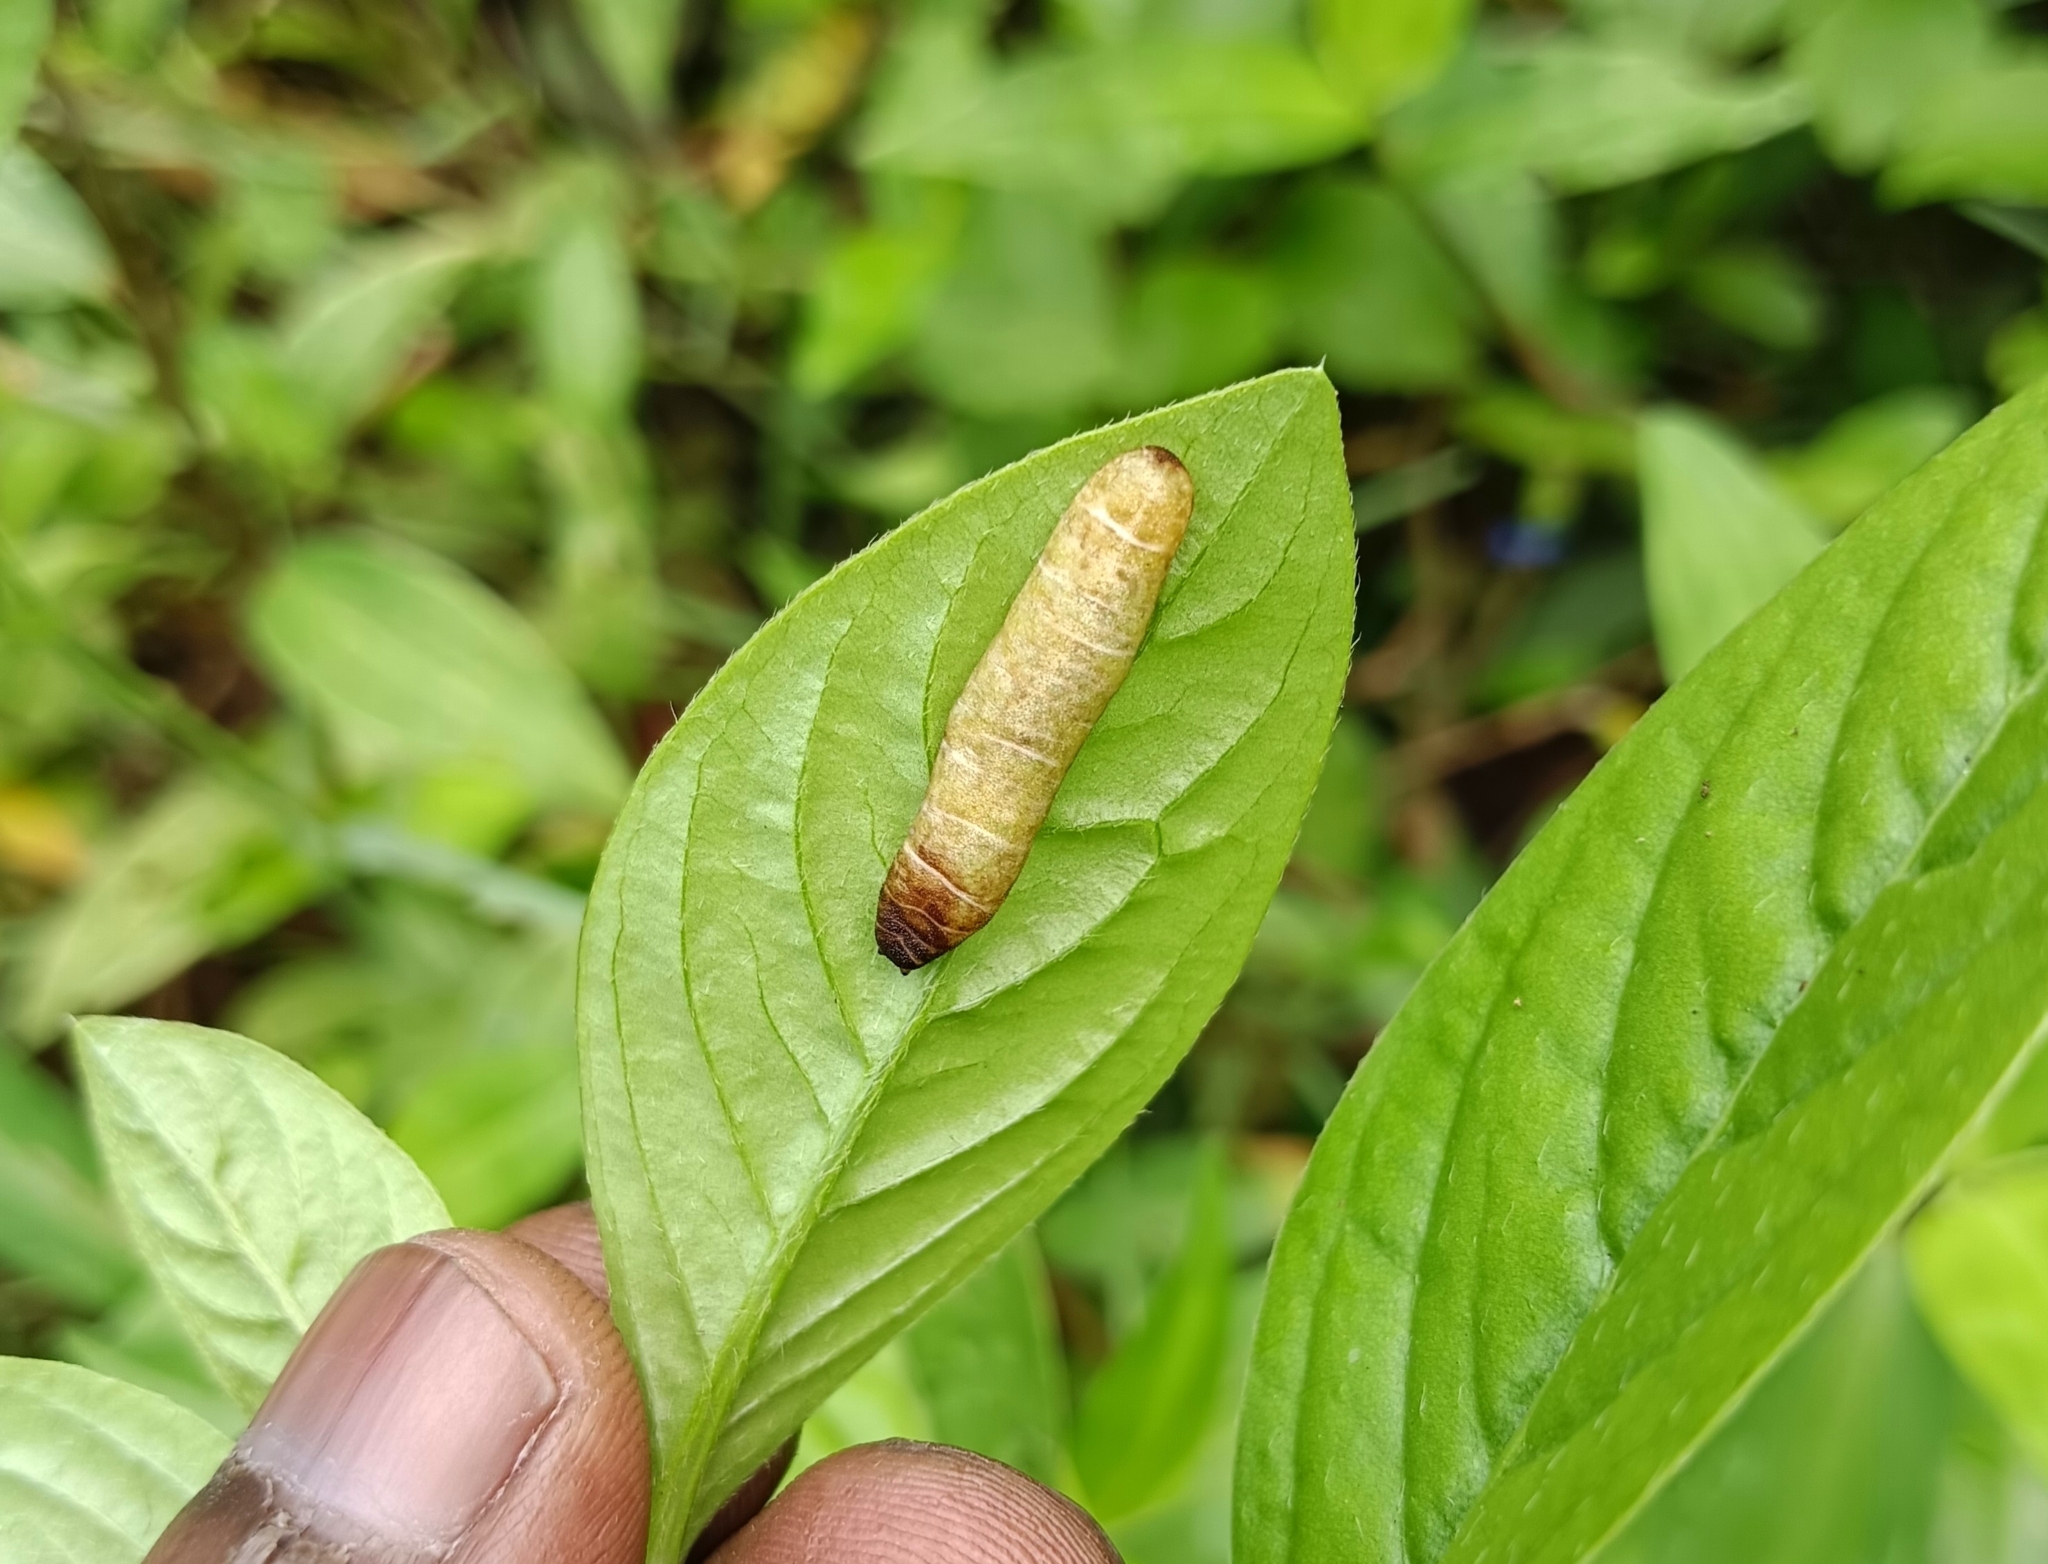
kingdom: Animalia
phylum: Mollusca
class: Gastropoda
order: Systellommatophora
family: Veronicellidae
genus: Laevicaulis
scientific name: Laevicaulis haroldi
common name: Caterpillar slug
